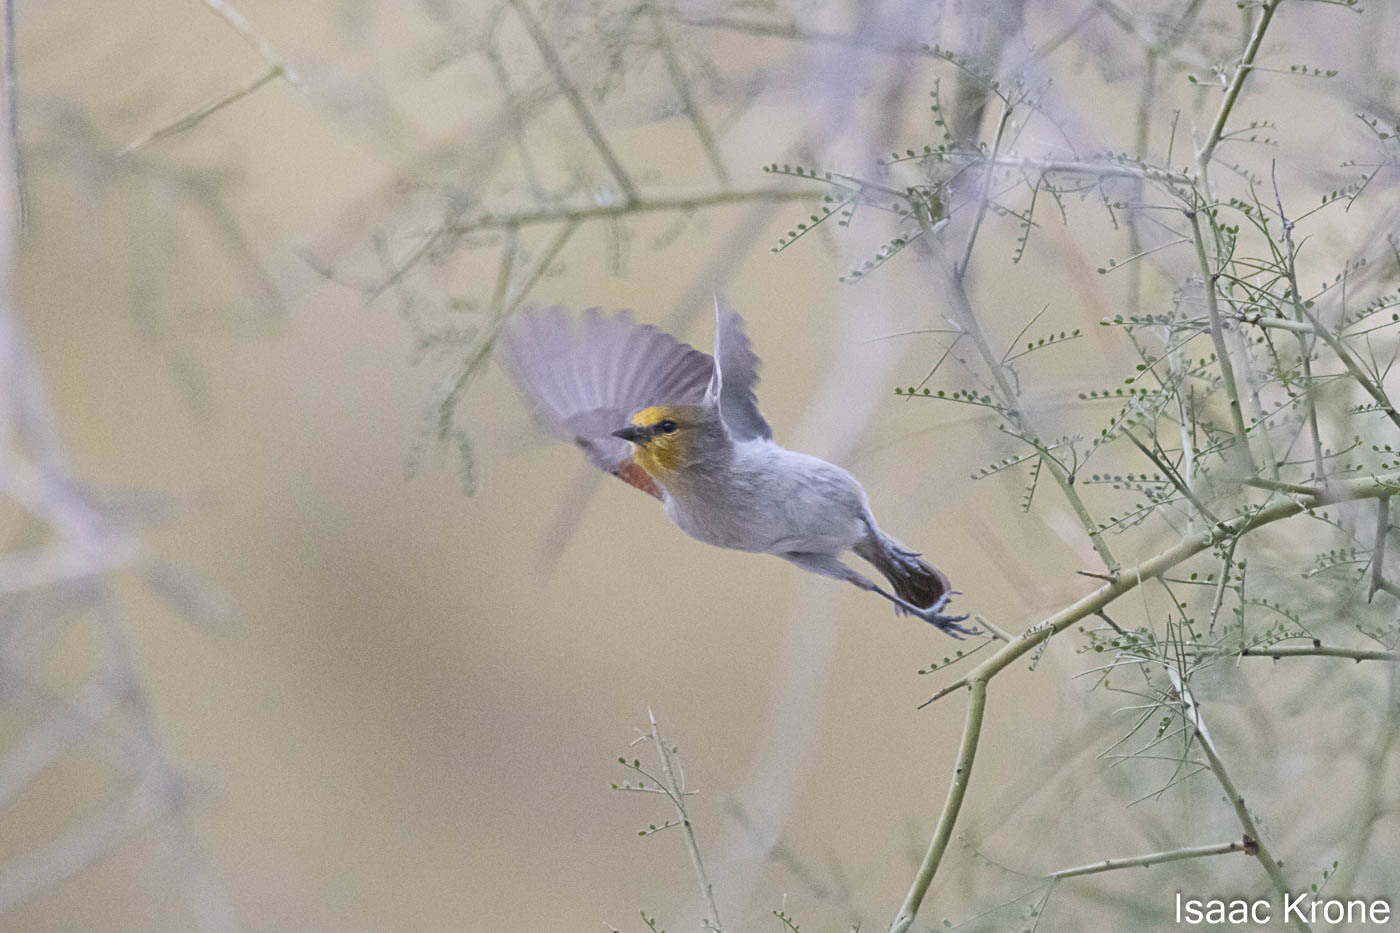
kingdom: Animalia
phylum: Chordata
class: Aves
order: Passeriformes
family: Remizidae
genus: Auriparus
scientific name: Auriparus flaviceps
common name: Verdin
